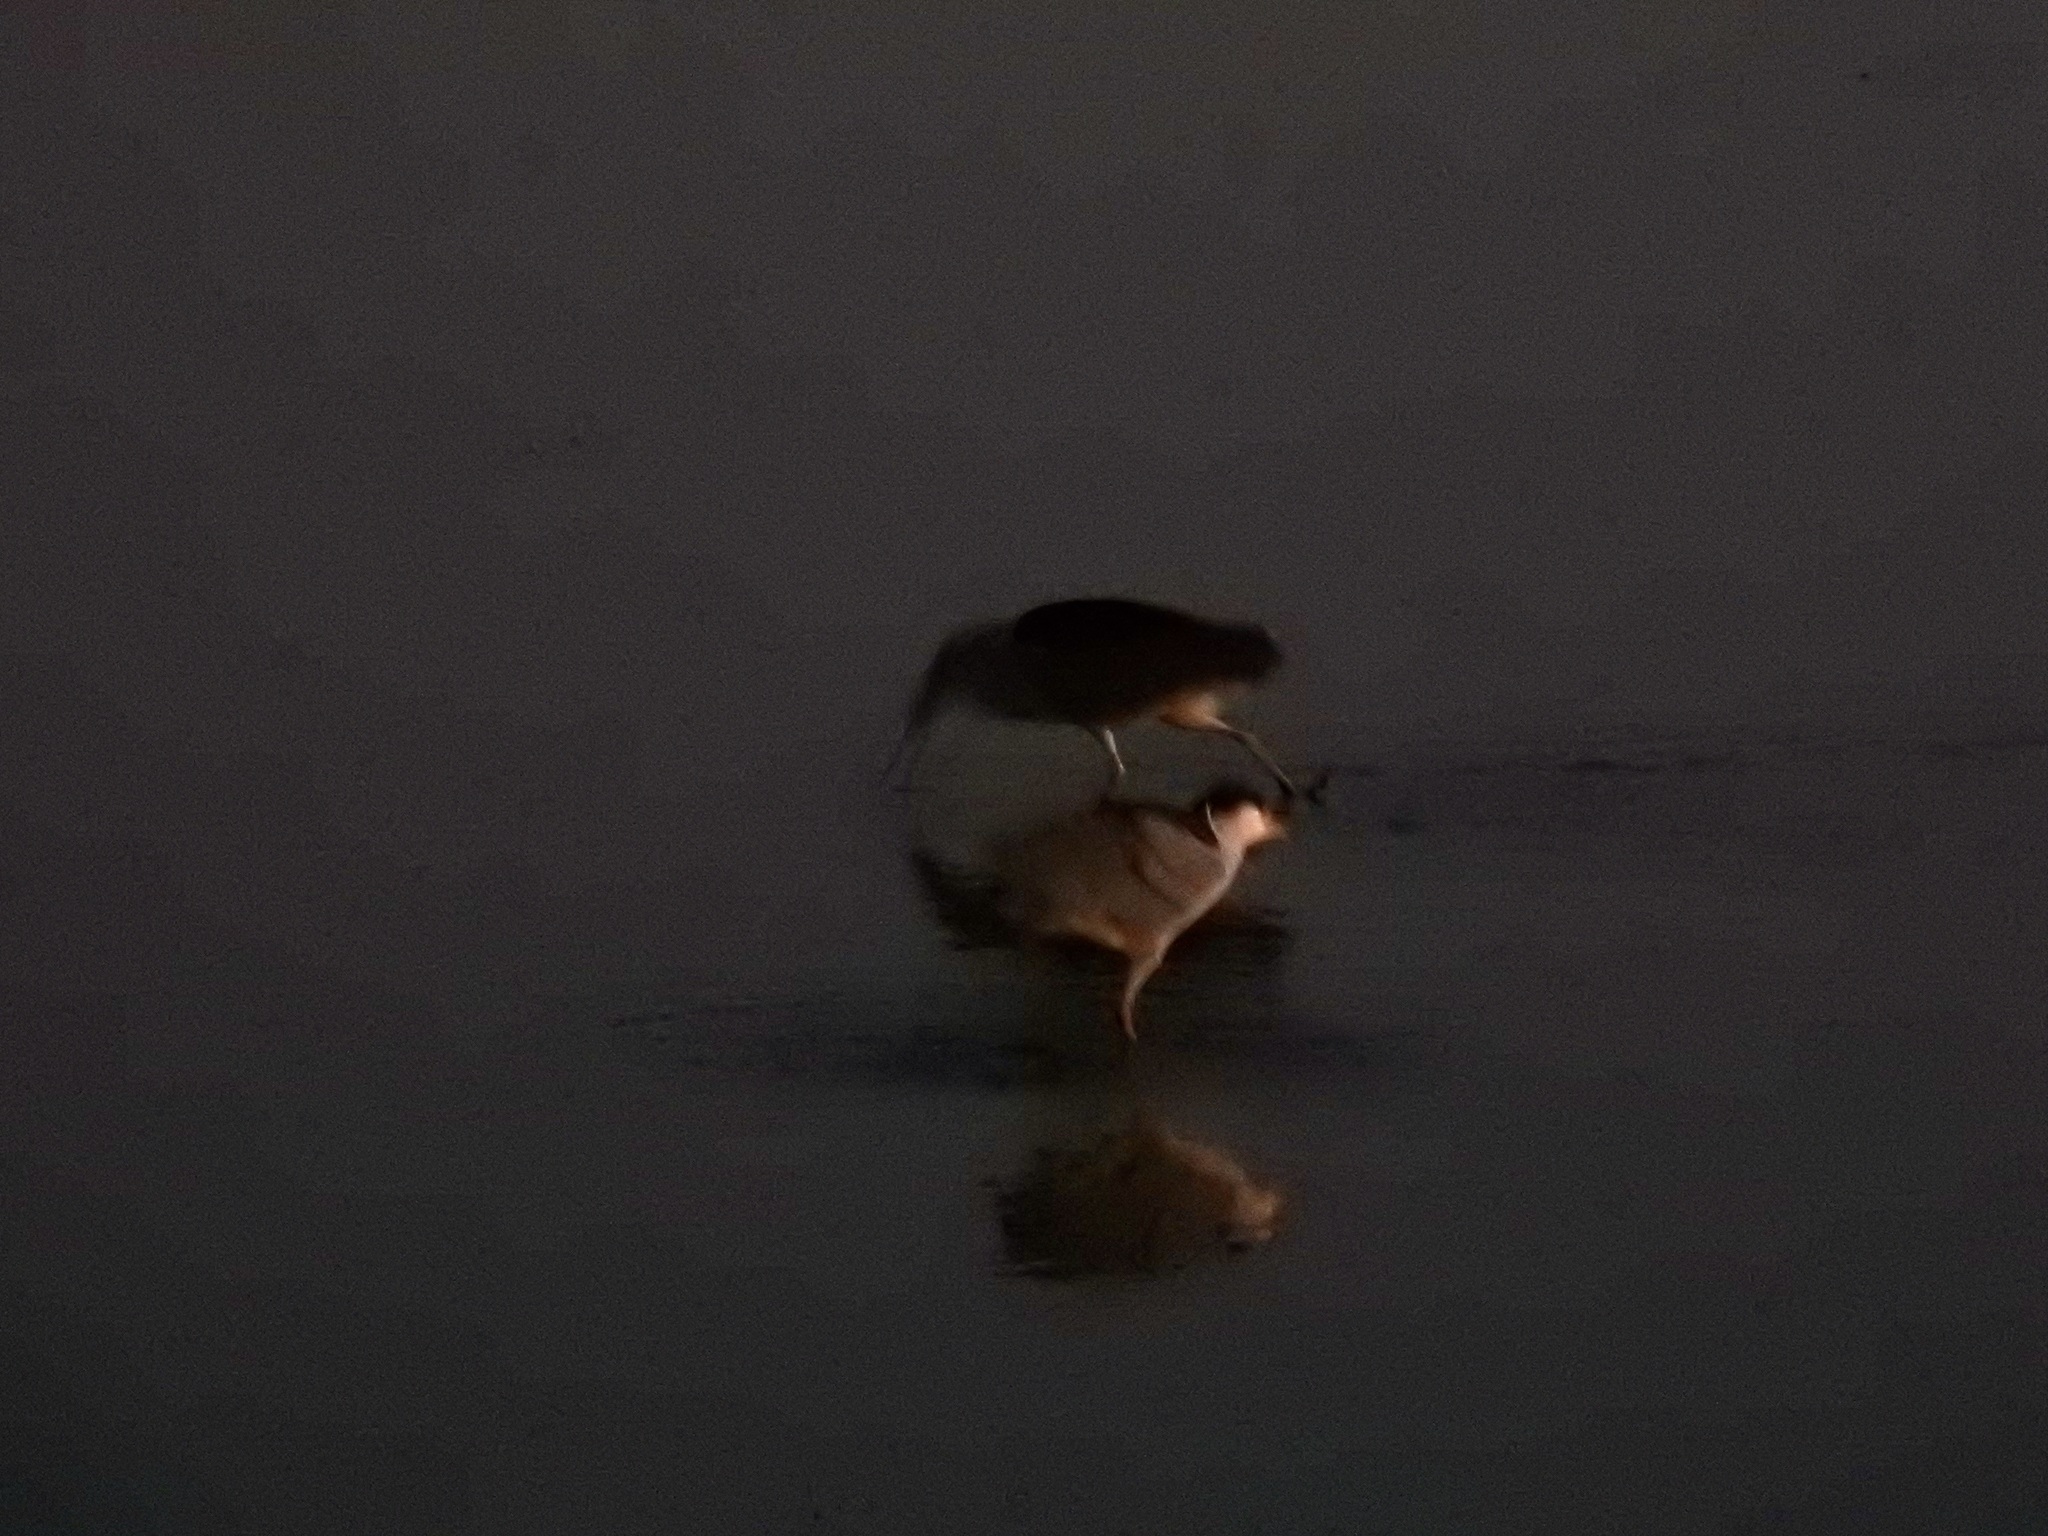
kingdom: Animalia
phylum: Chordata
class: Aves
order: Pelecaniformes
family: Ardeidae
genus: Nycticorax
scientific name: Nycticorax nycticorax
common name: Black-crowned night heron
